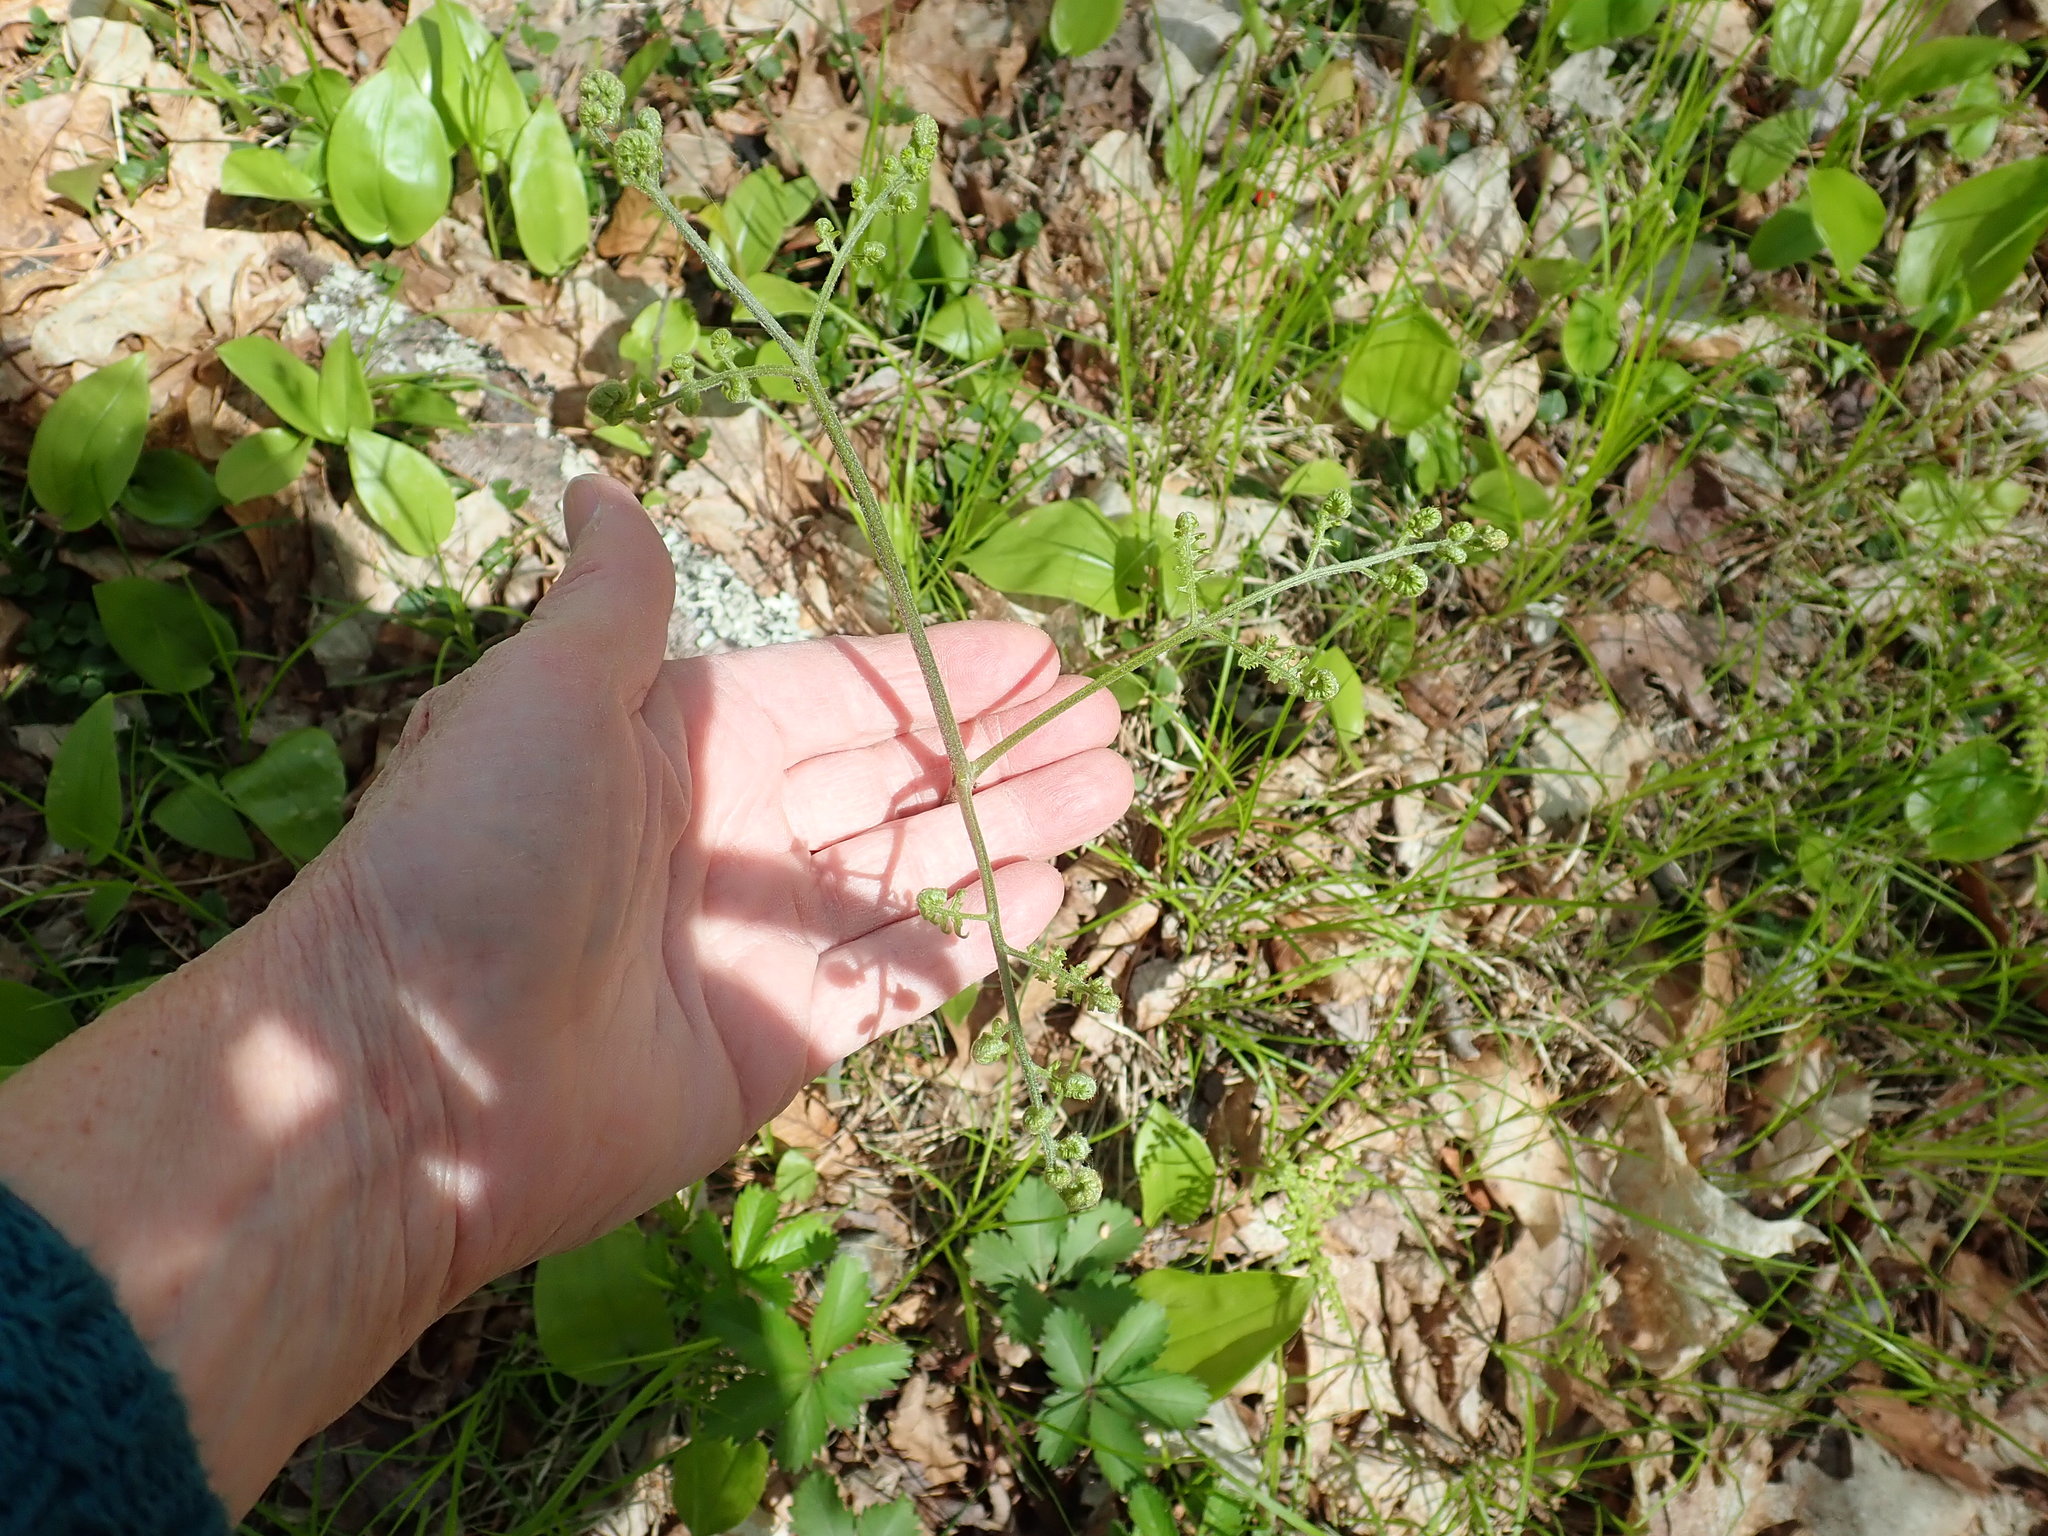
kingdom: Plantae
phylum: Tracheophyta
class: Polypodiopsida
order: Polypodiales
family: Dennstaedtiaceae
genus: Pteridium
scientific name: Pteridium aquilinum
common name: Bracken
